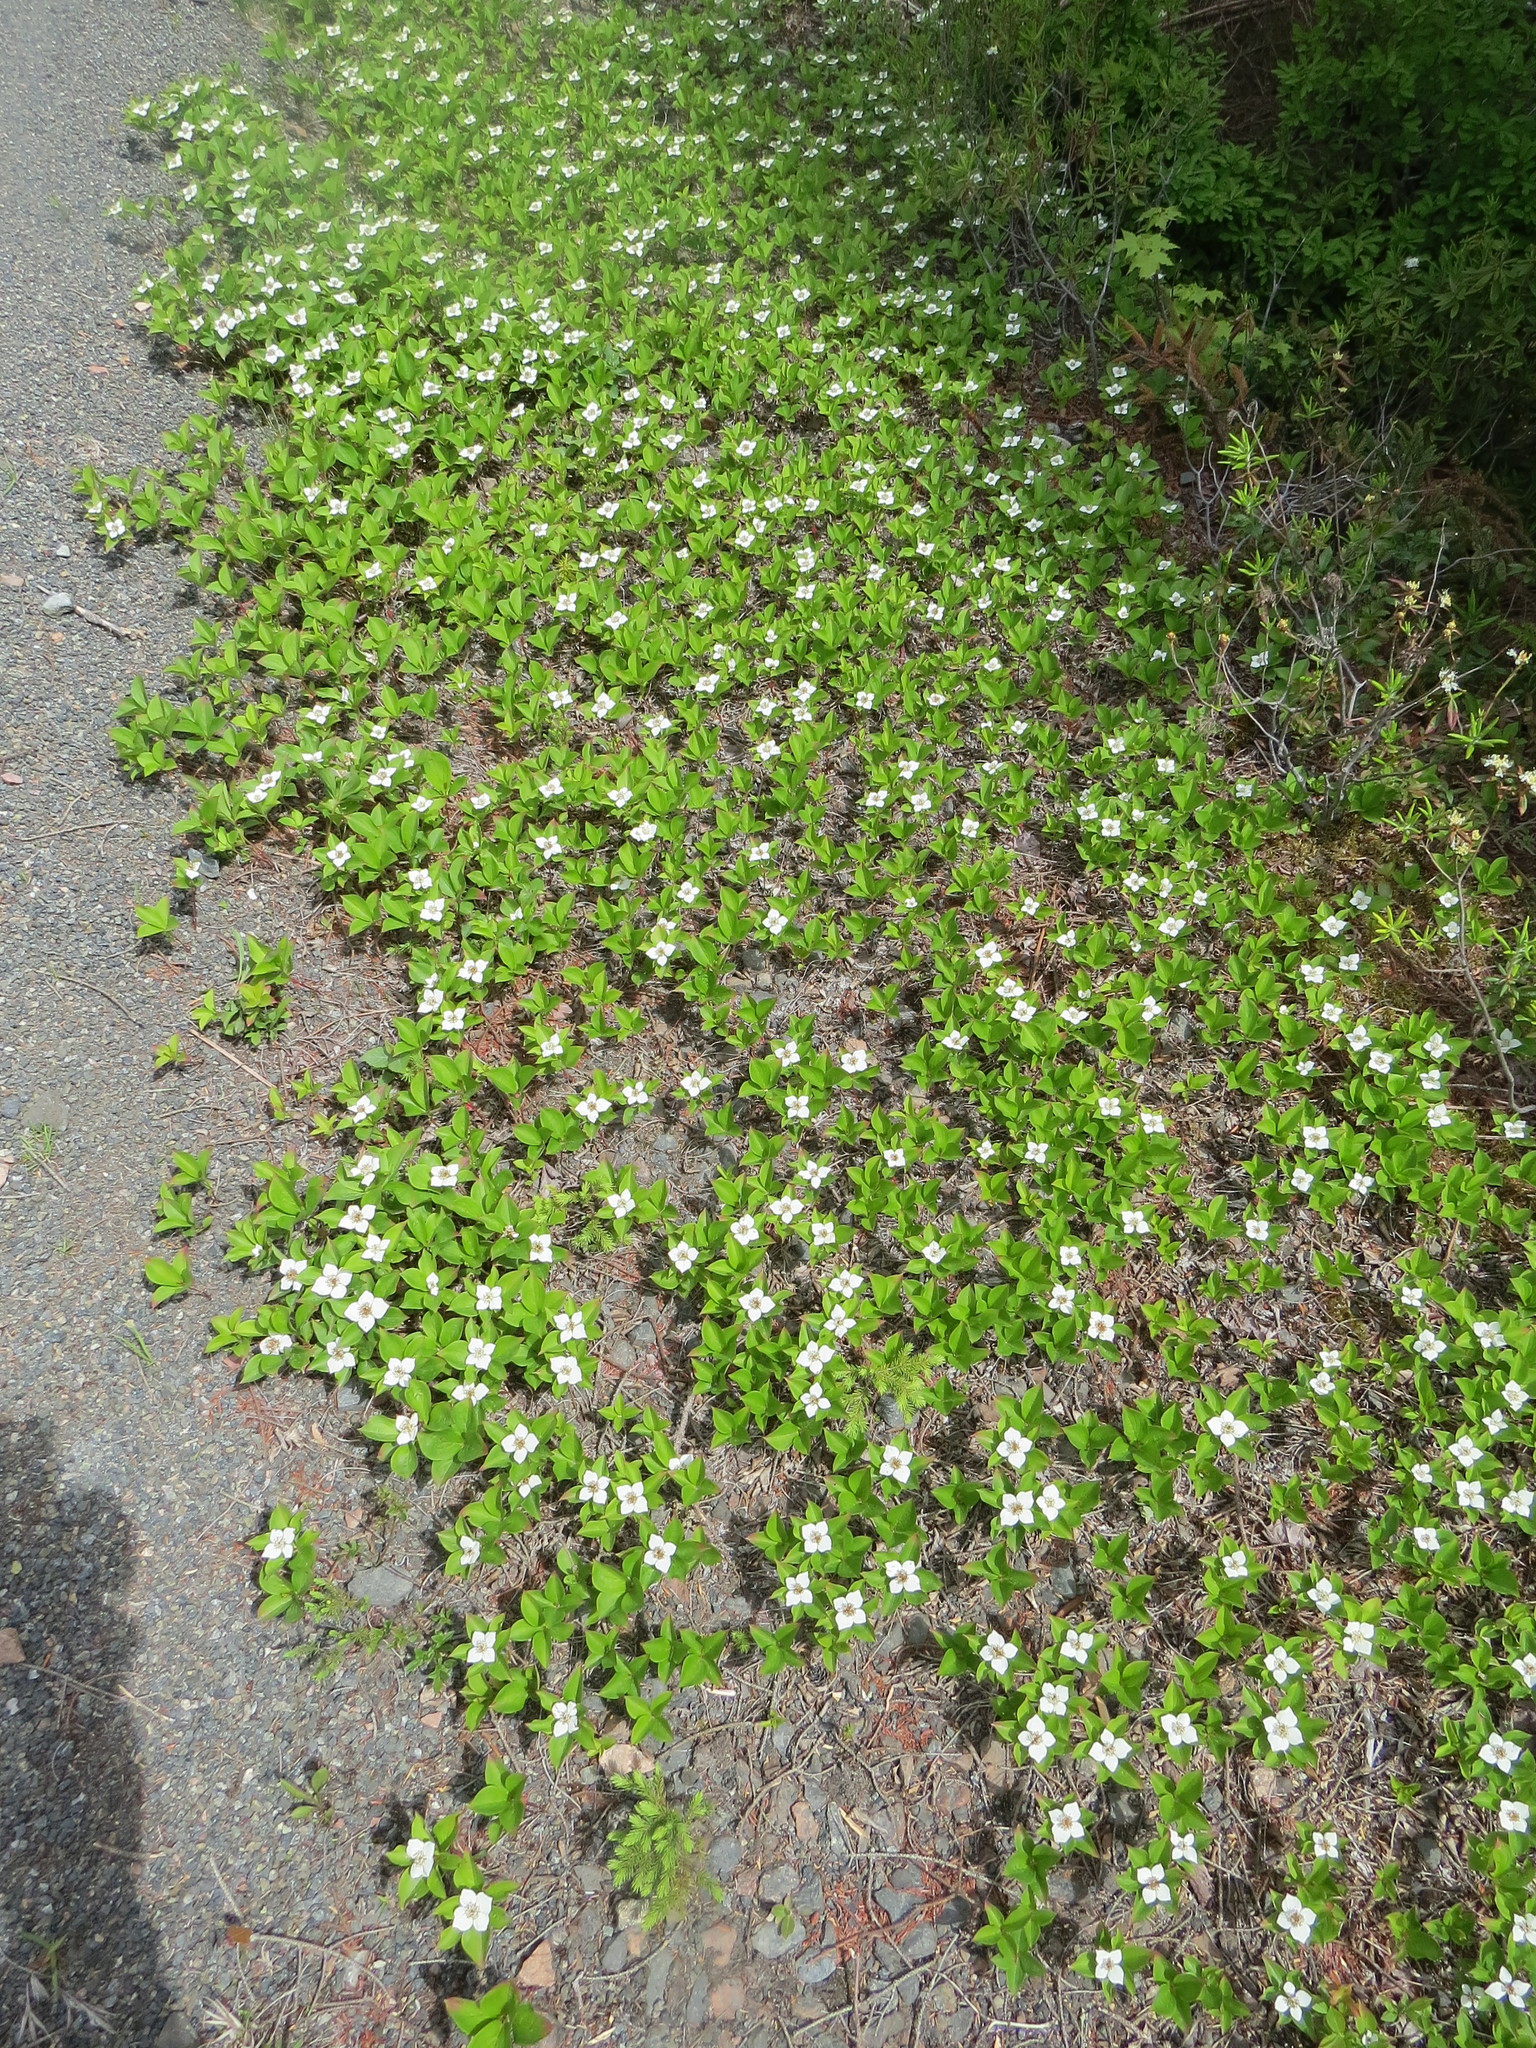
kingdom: Plantae
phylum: Tracheophyta
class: Magnoliopsida
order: Cornales
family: Cornaceae
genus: Cornus
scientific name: Cornus canadensis
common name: Creeping dogwood
